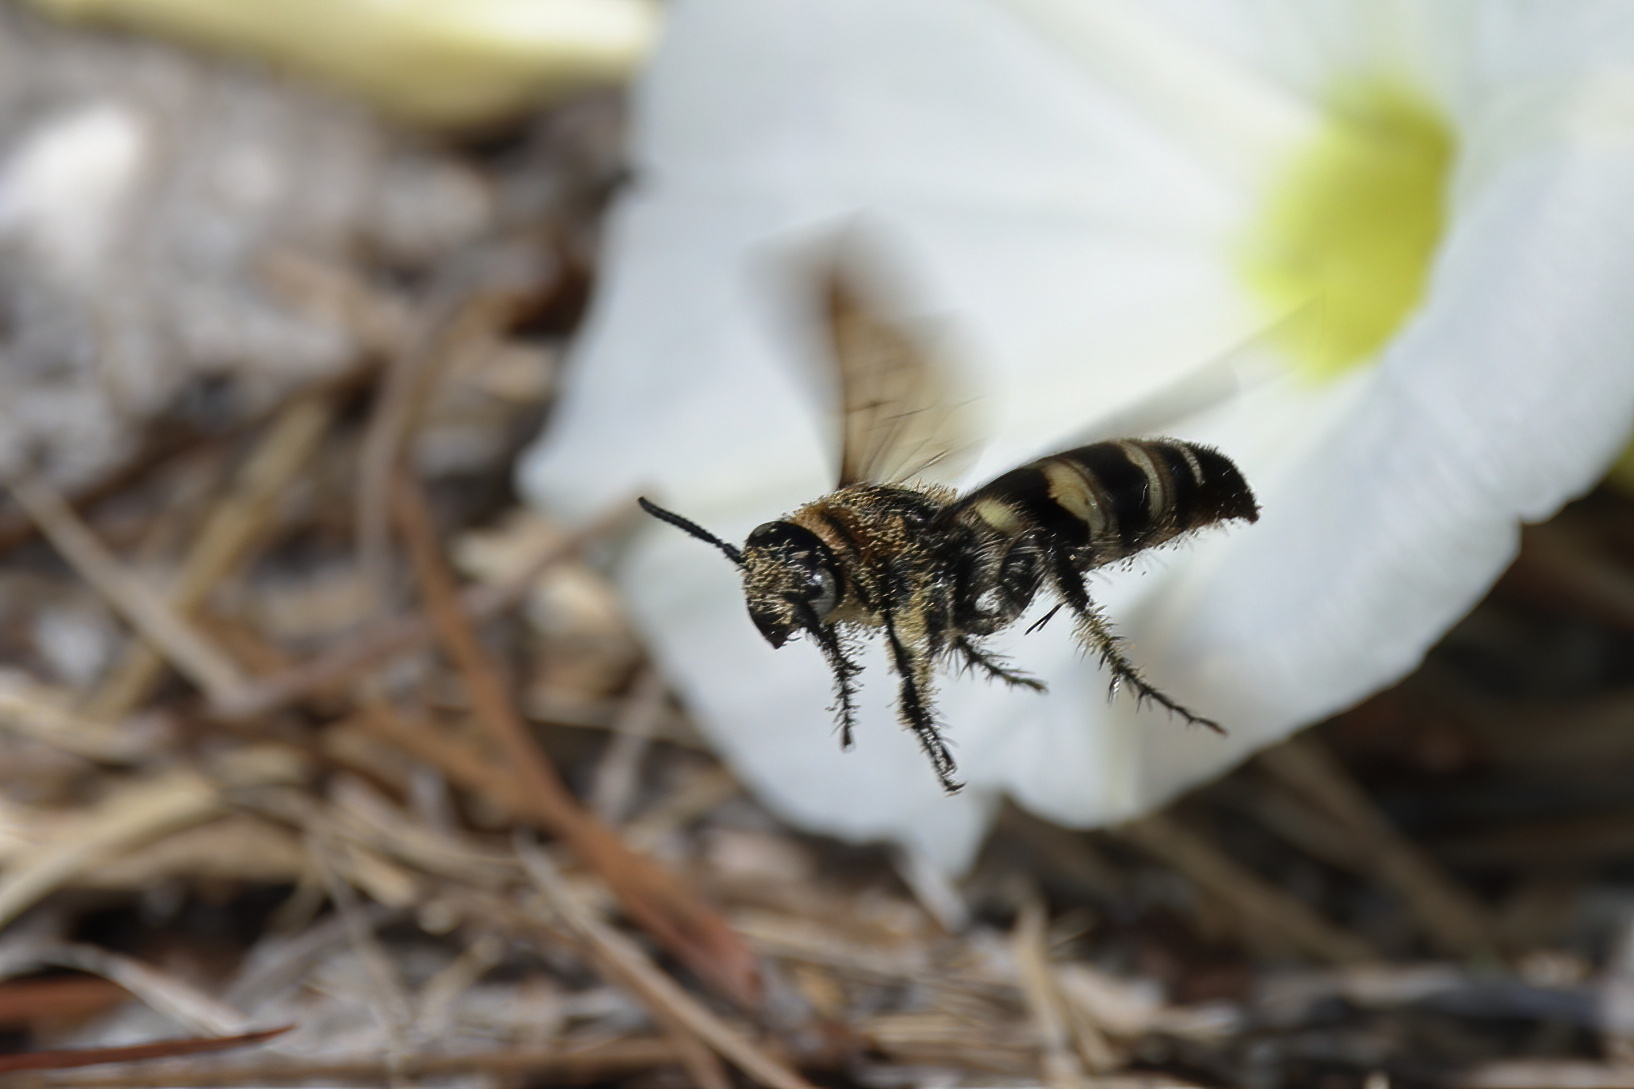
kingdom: Animalia
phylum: Arthropoda
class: Insecta
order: Hymenoptera
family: Scoliidae
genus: Dielis
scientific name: Dielis
